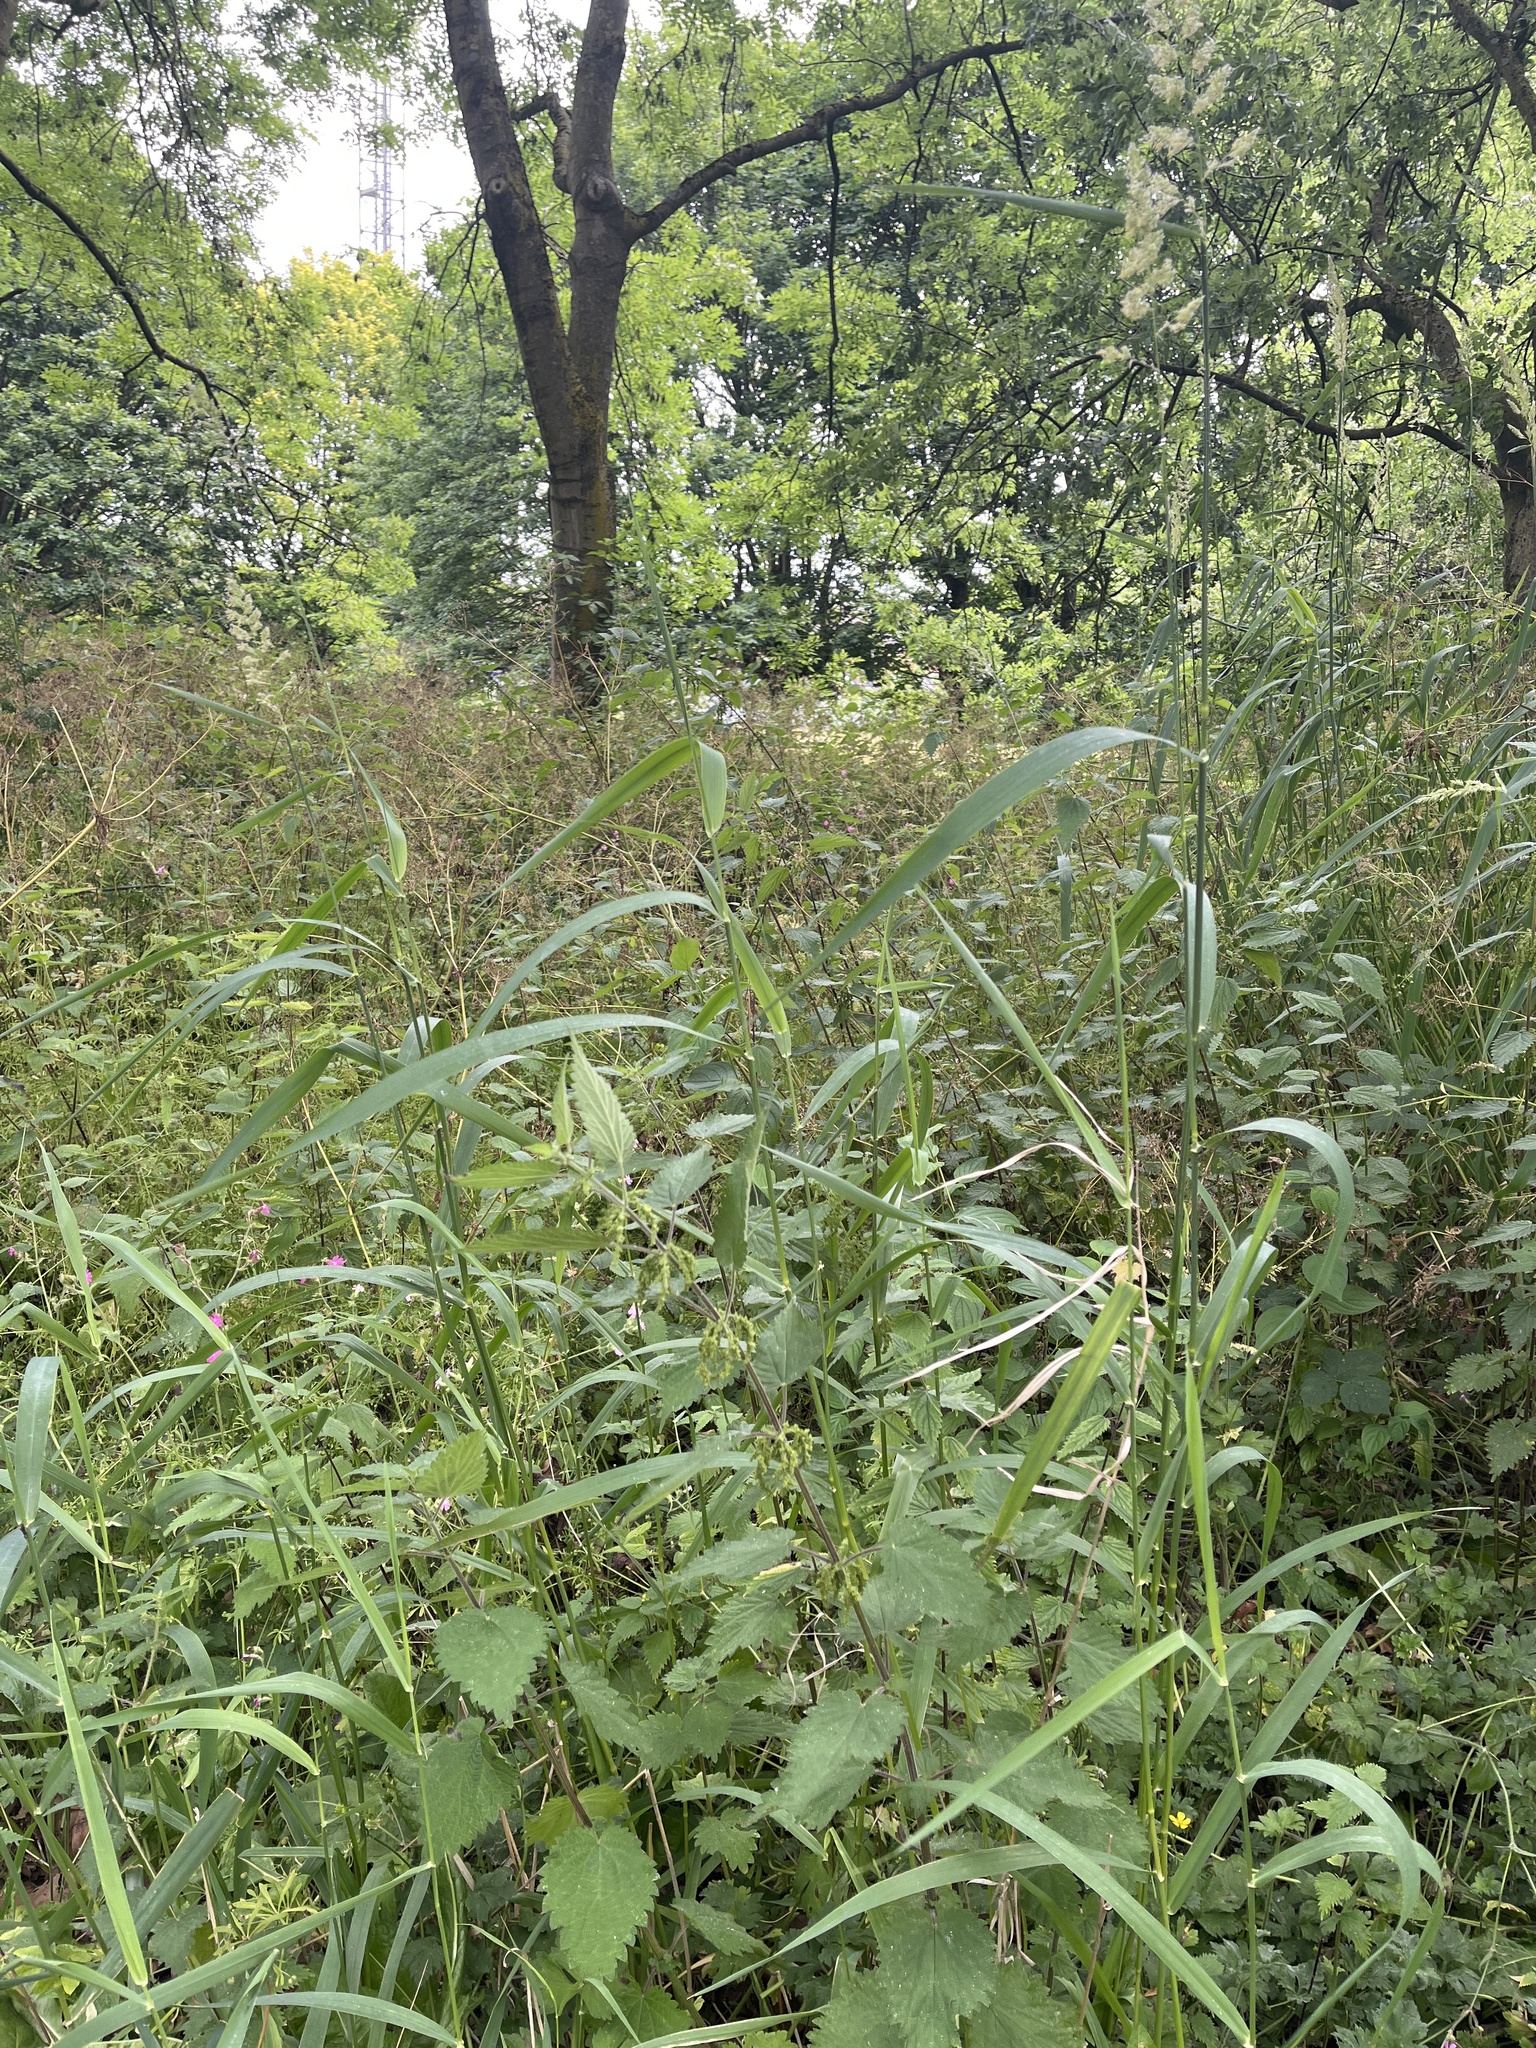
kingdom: Plantae
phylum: Tracheophyta
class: Liliopsida
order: Poales
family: Poaceae
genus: Phalaris
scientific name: Phalaris arundinacea
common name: Reed canary-grass
